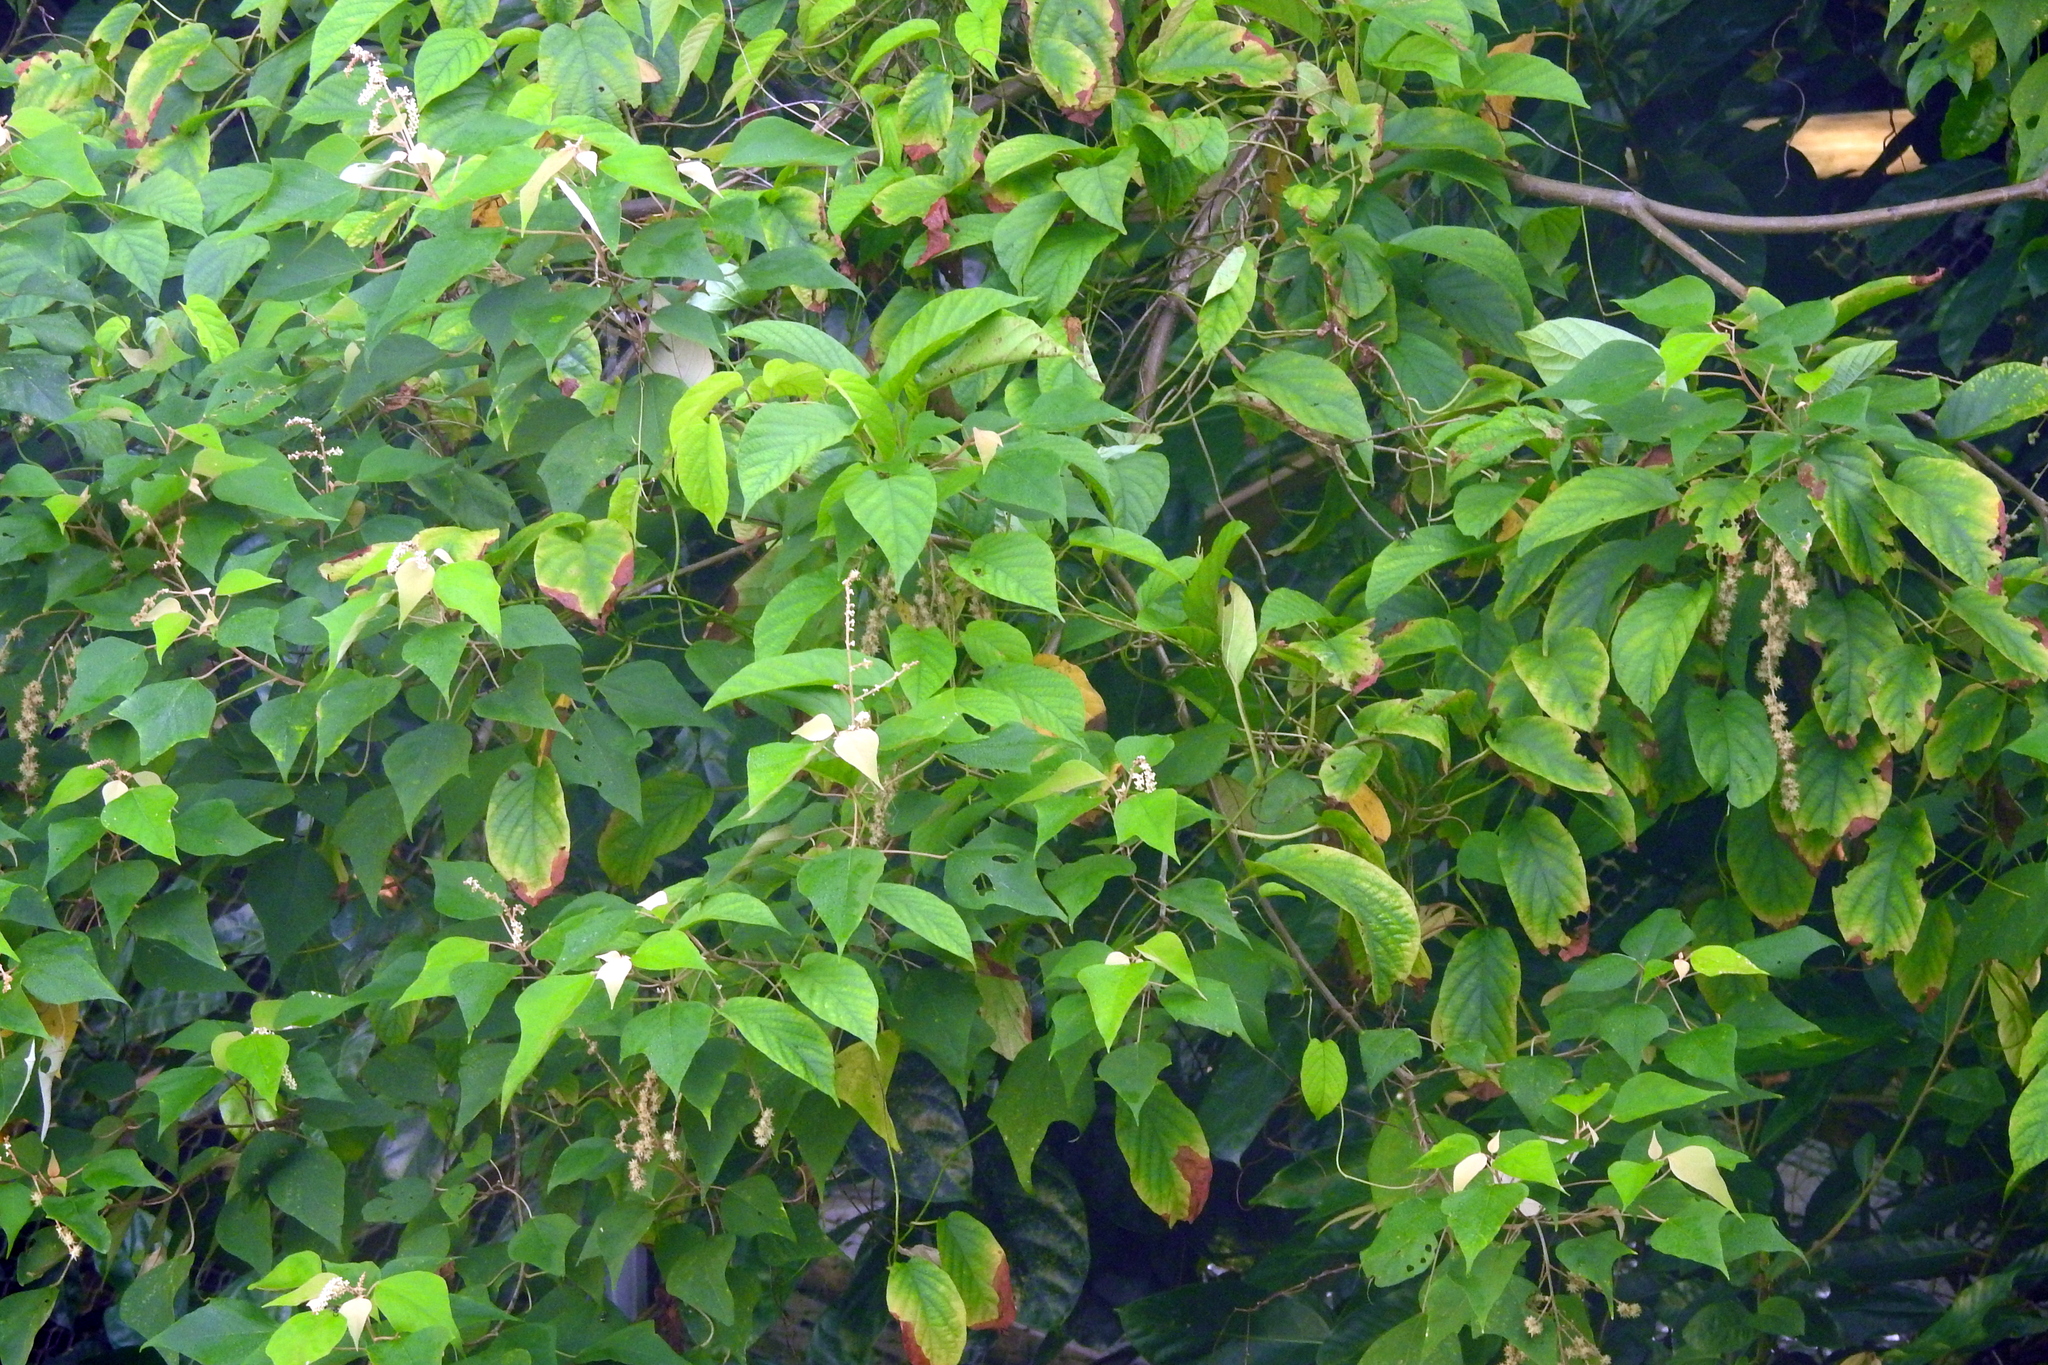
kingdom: Plantae
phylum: Tracheophyta
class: Magnoliopsida
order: Malpighiales
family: Euphorbiaceae
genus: Mallotus
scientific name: Mallotus paniculatus
